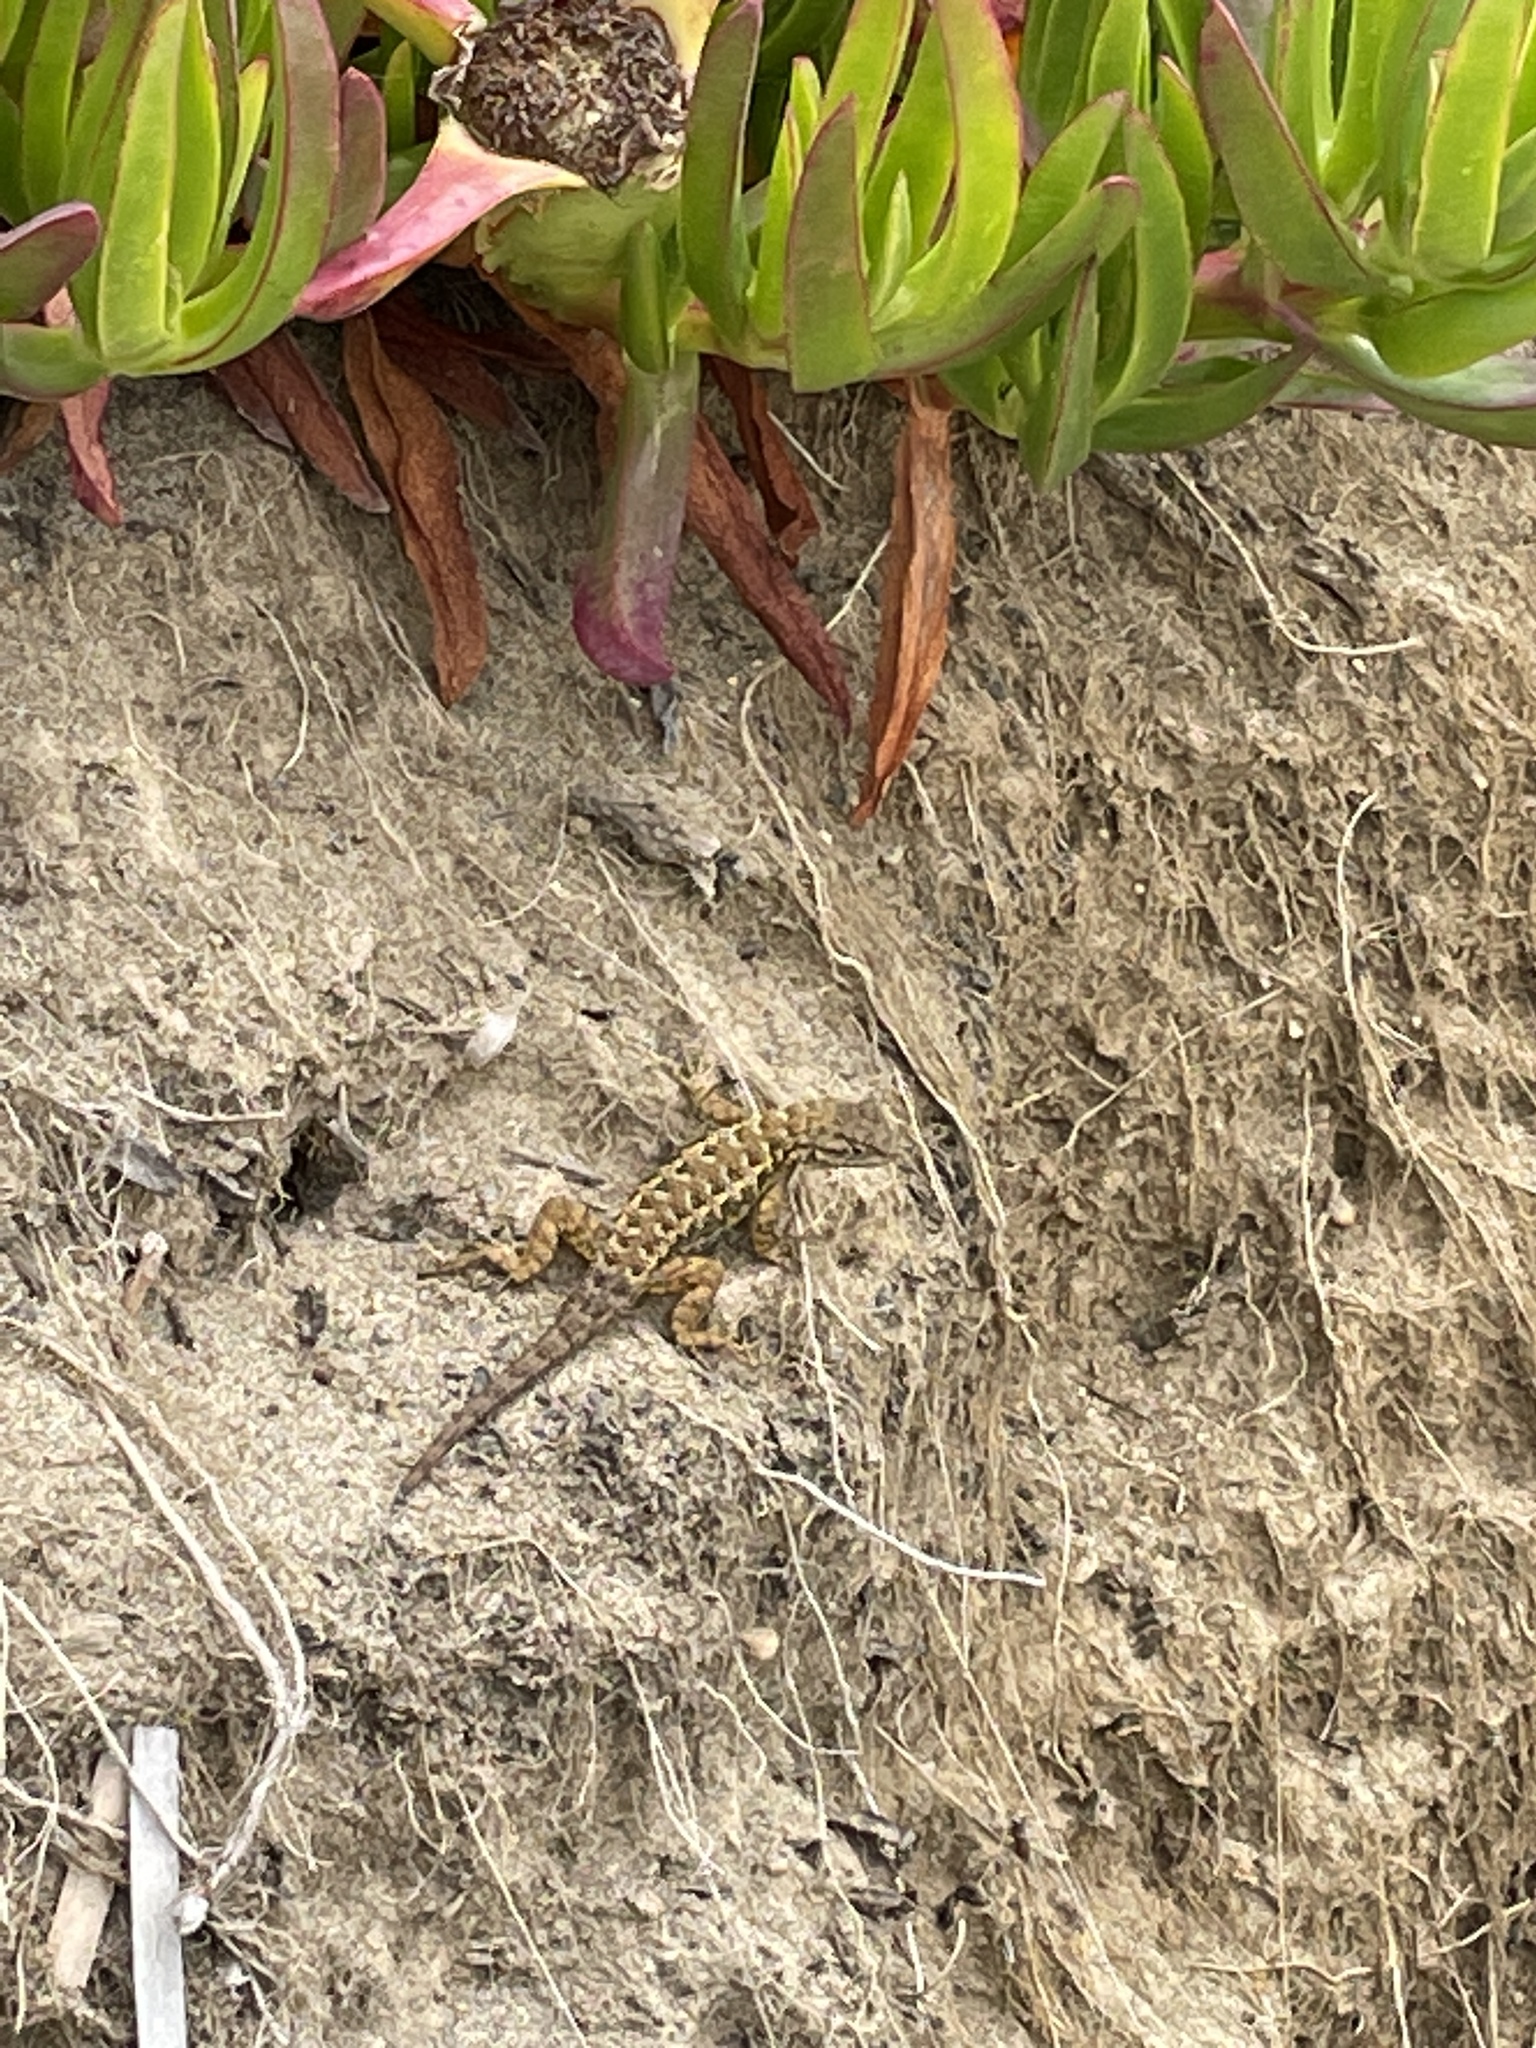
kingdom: Animalia
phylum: Chordata
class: Squamata
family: Phrynosomatidae
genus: Sceloporus
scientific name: Sceloporus occidentalis
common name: Western fence lizard
